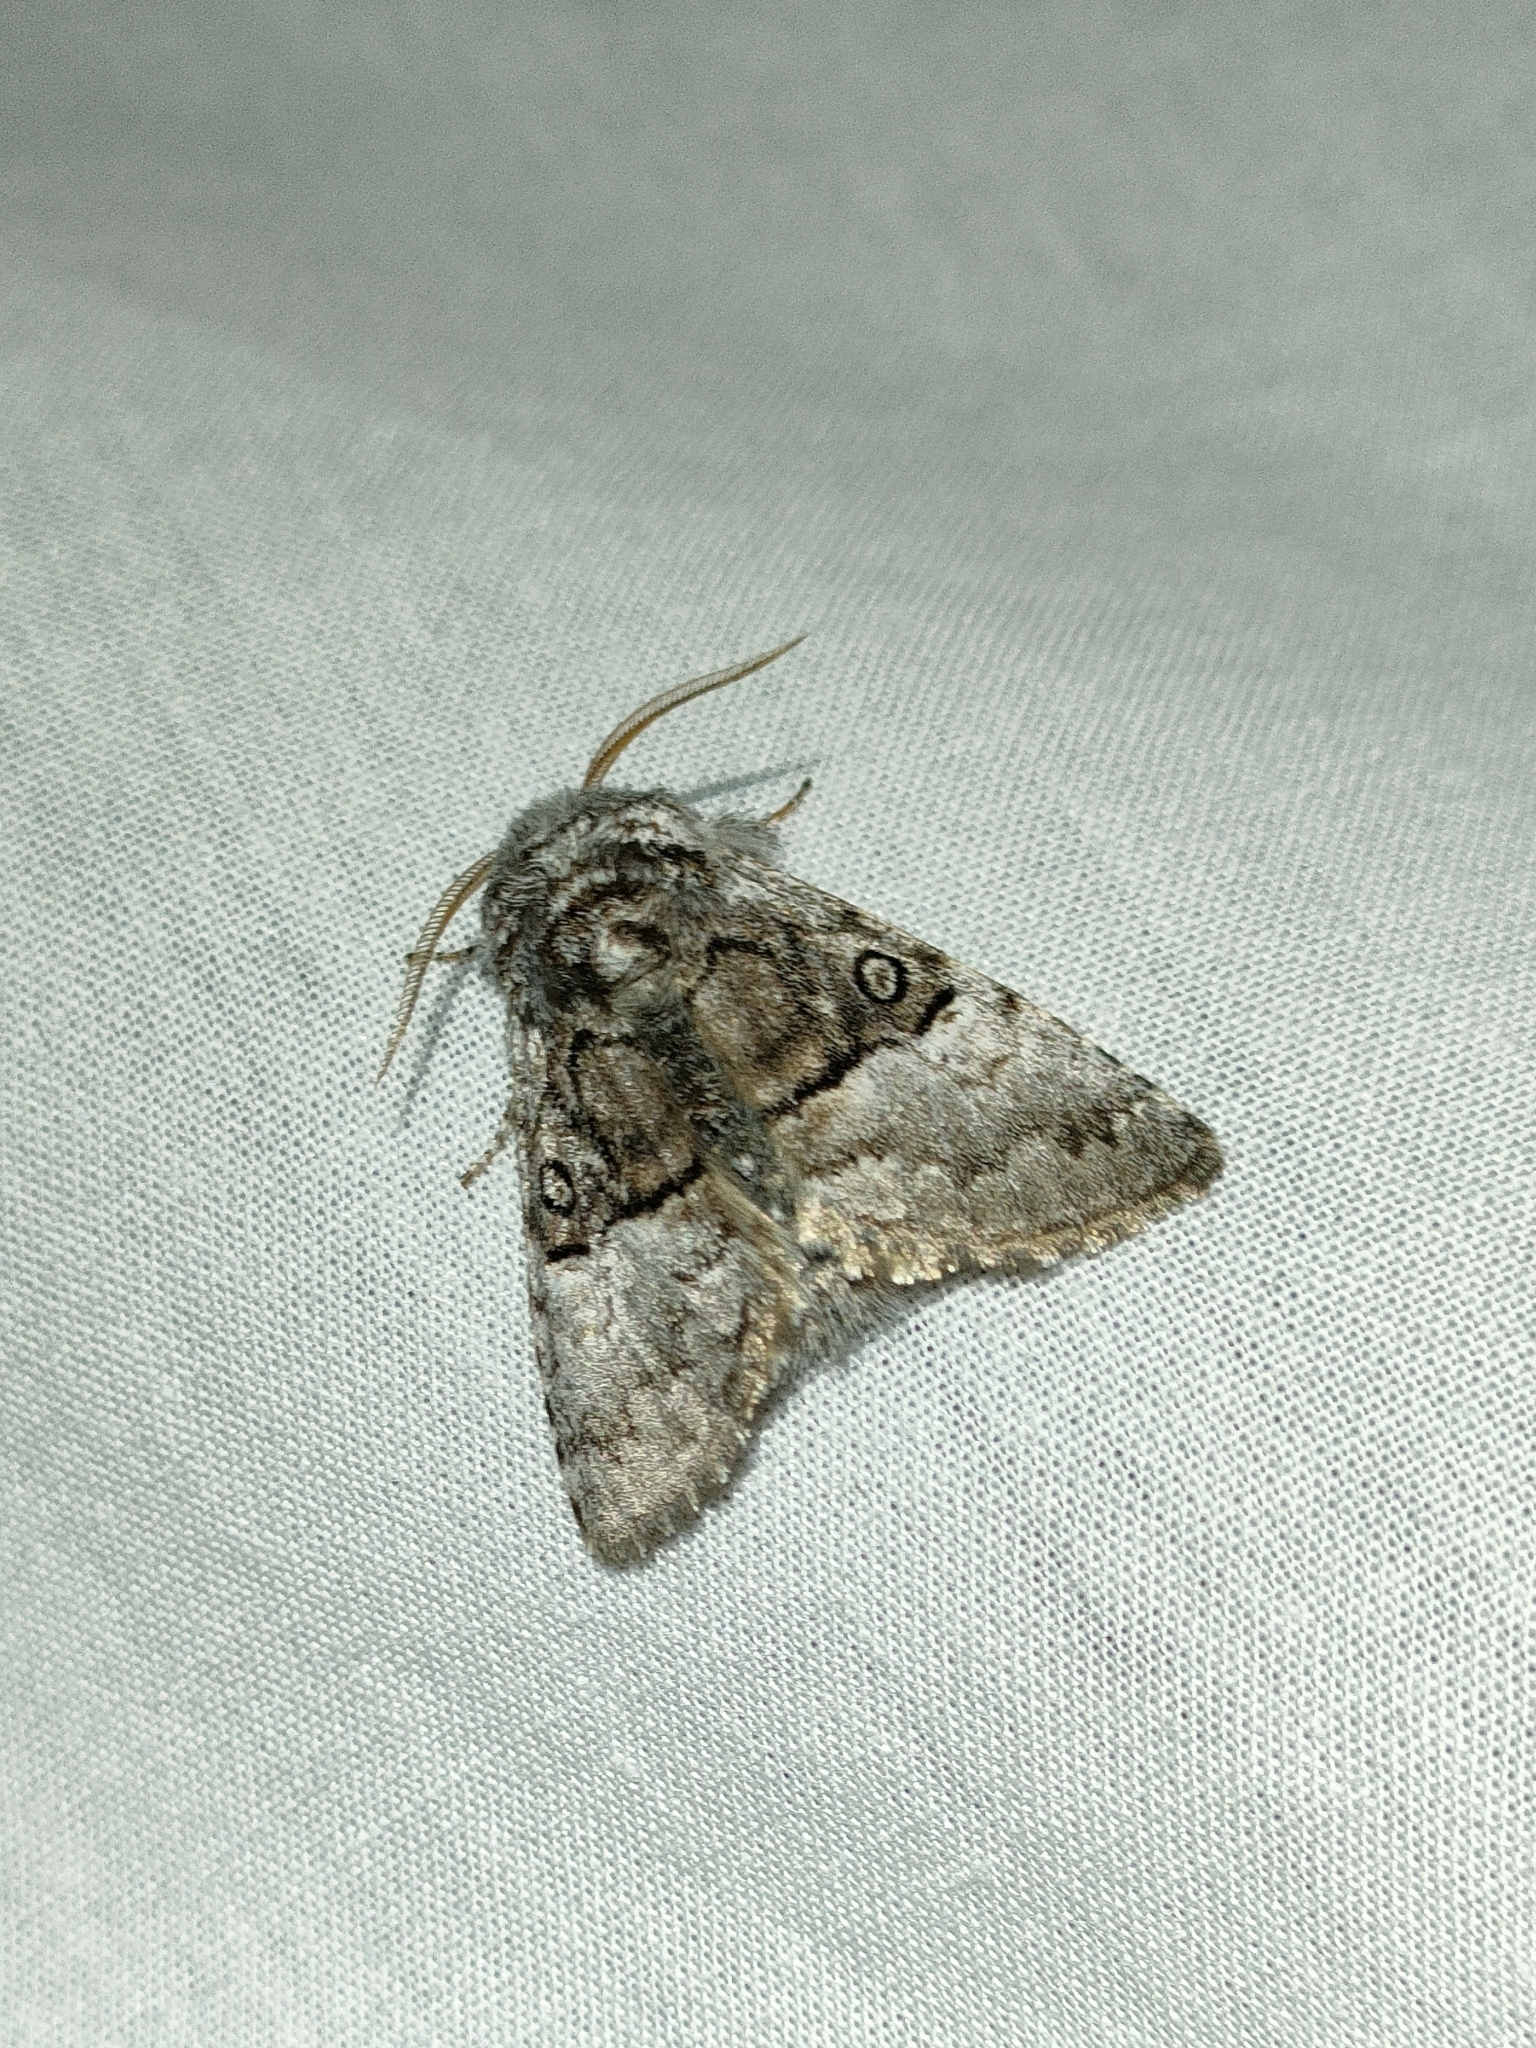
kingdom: Animalia
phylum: Arthropoda
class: Insecta
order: Lepidoptera
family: Noctuidae
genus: Colocasia
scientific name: Colocasia coryli
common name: Nut-tree tussock
